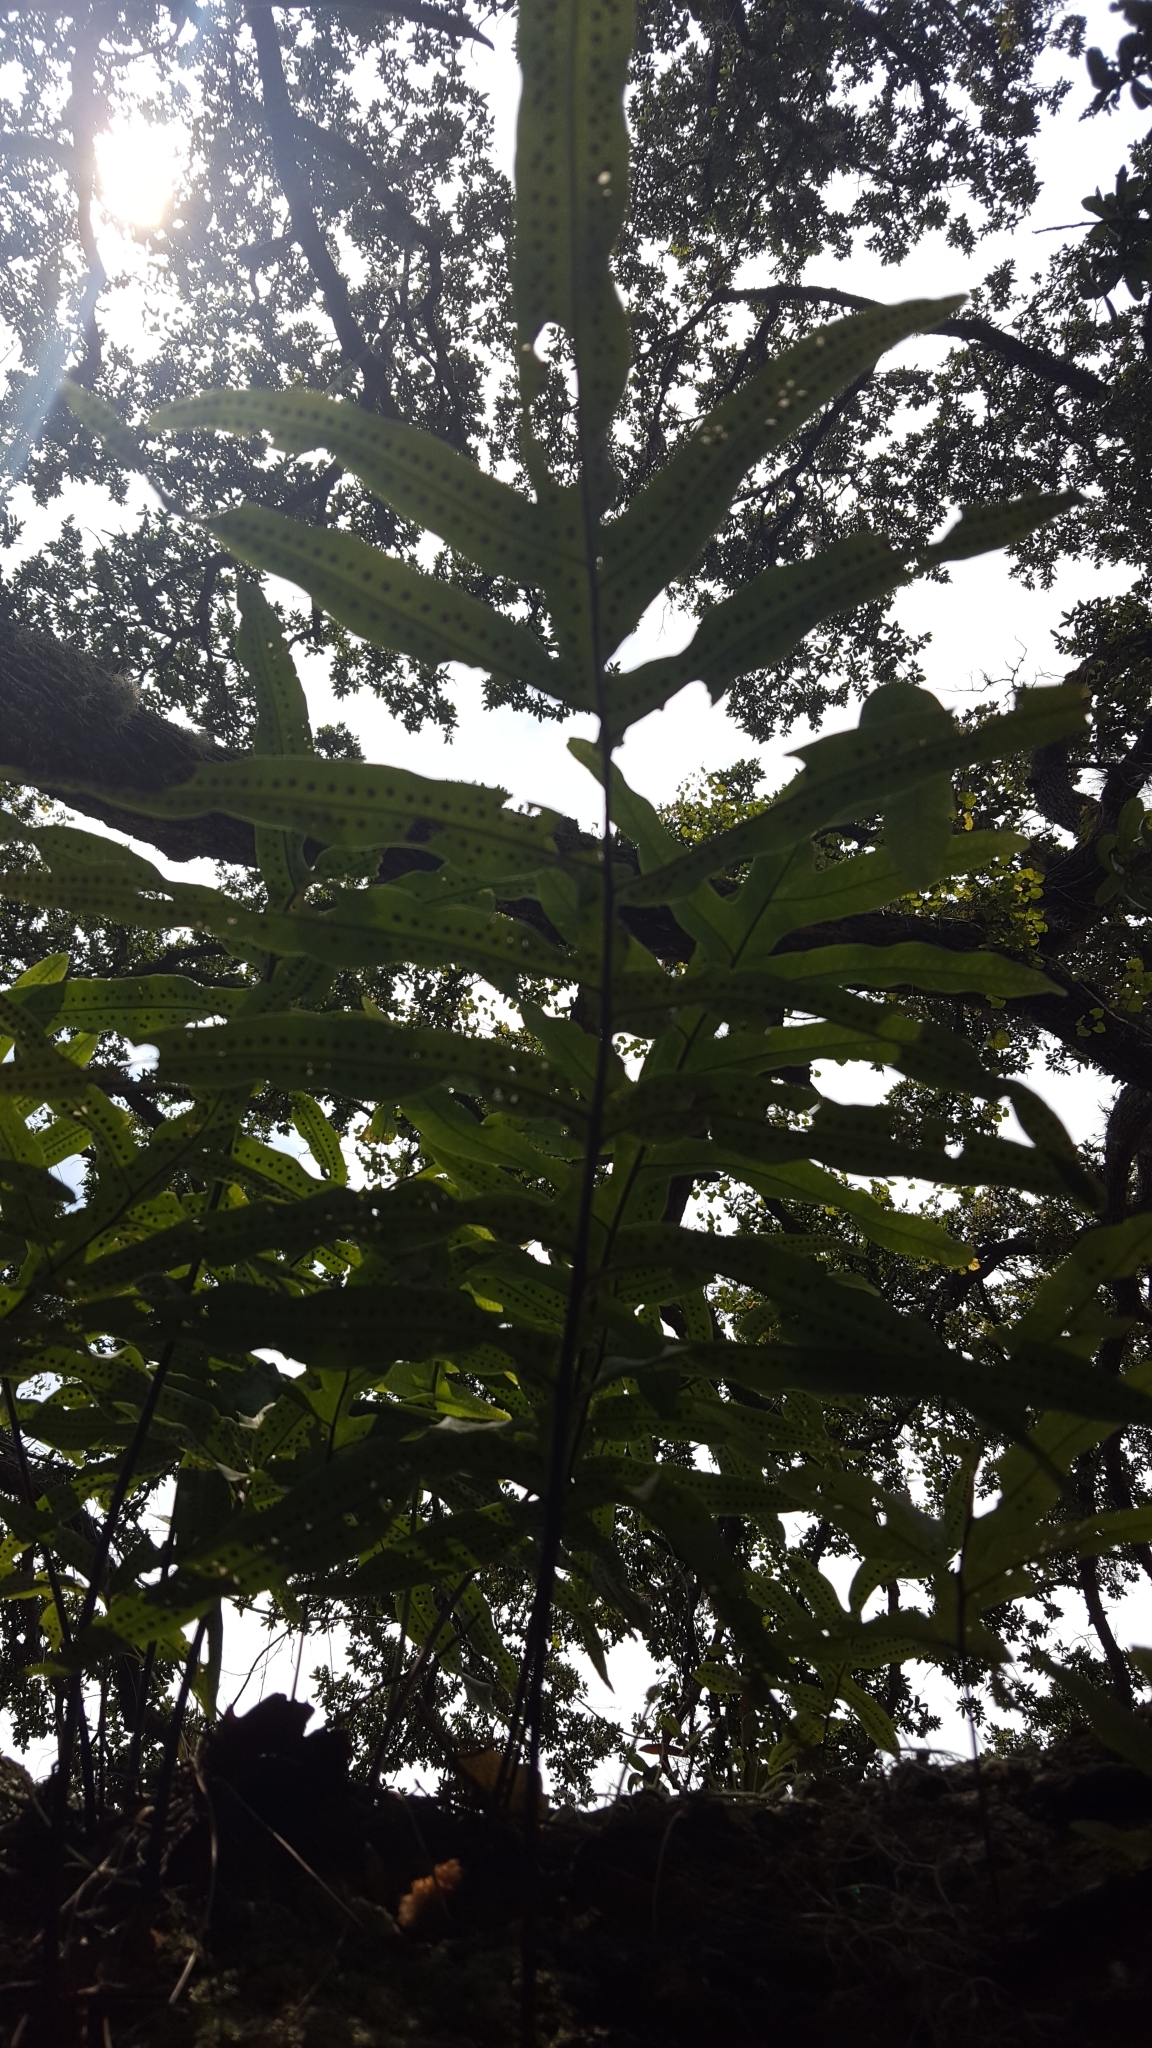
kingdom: Plantae
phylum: Tracheophyta
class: Polypodiopsida
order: Polypodiales
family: Polypodiaceae
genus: Phlebodium
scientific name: Phlebodium aureum
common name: Gold-foot fern
